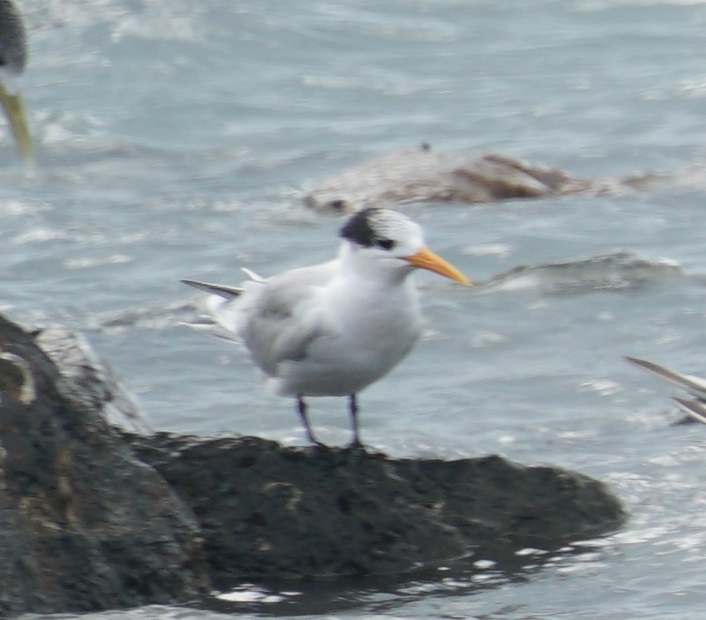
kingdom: Animalia
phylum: Chordata
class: Aves
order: Charadriiformes
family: Laridae
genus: Thalasseus
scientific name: Thalasseus bengalensis
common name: Lesser crested tern
